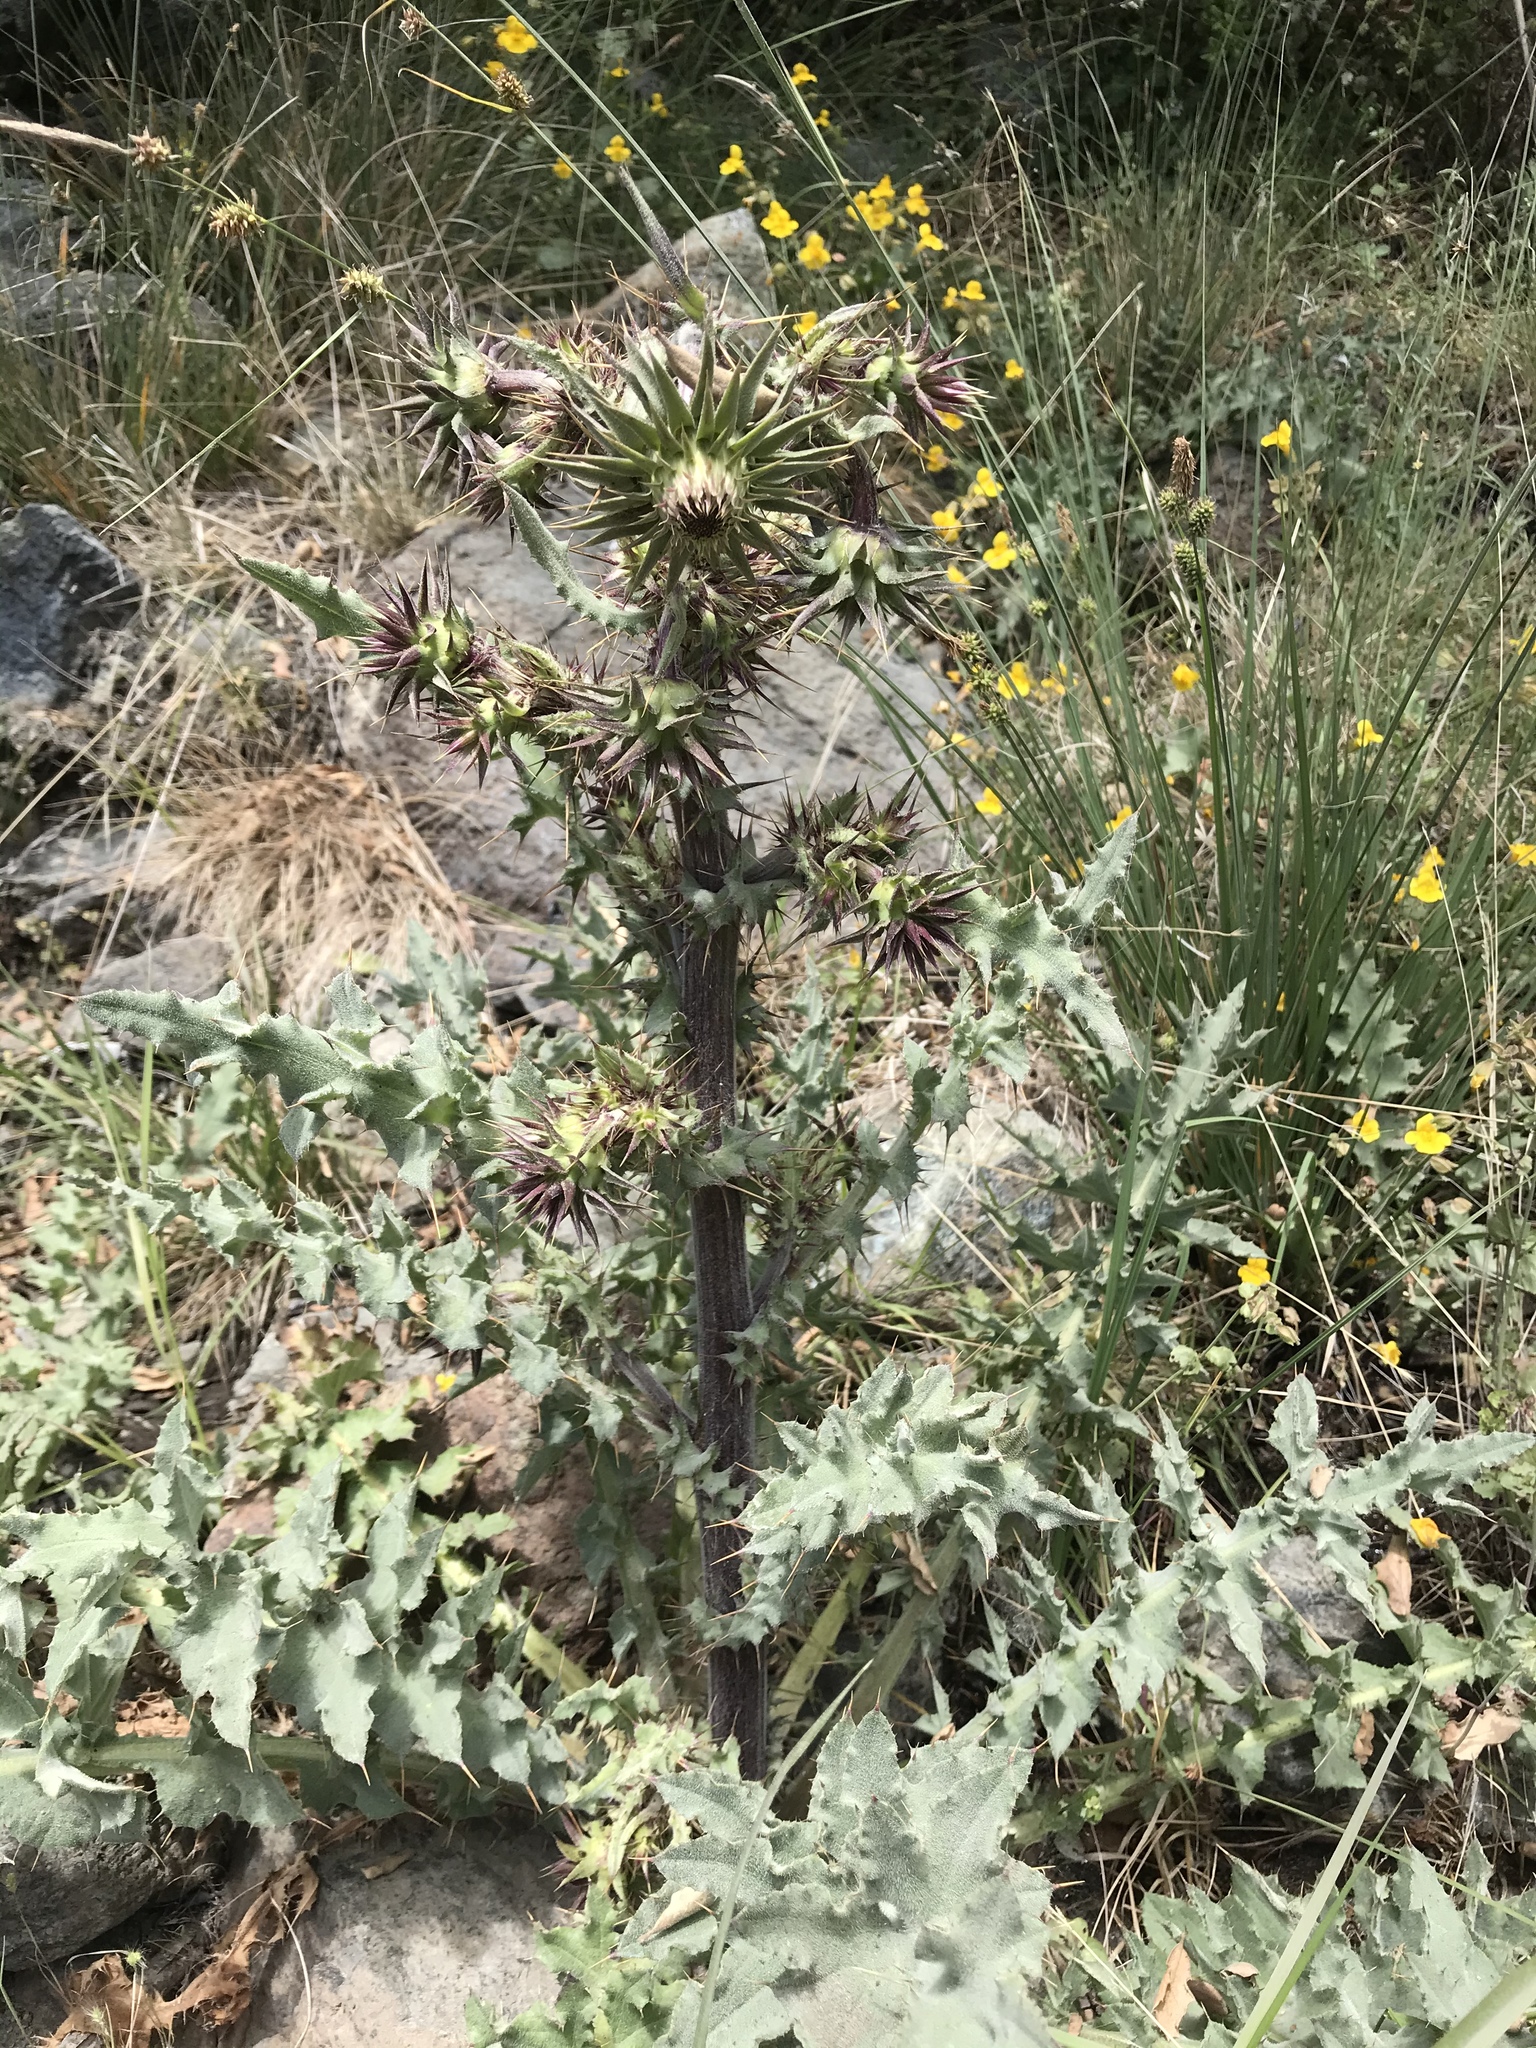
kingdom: Plantae
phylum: Tracheophyta
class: Magnoliopsida
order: Asterales
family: Asteraceae
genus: Cirsium
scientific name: Cirsium fontinale
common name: Fountain thistle
